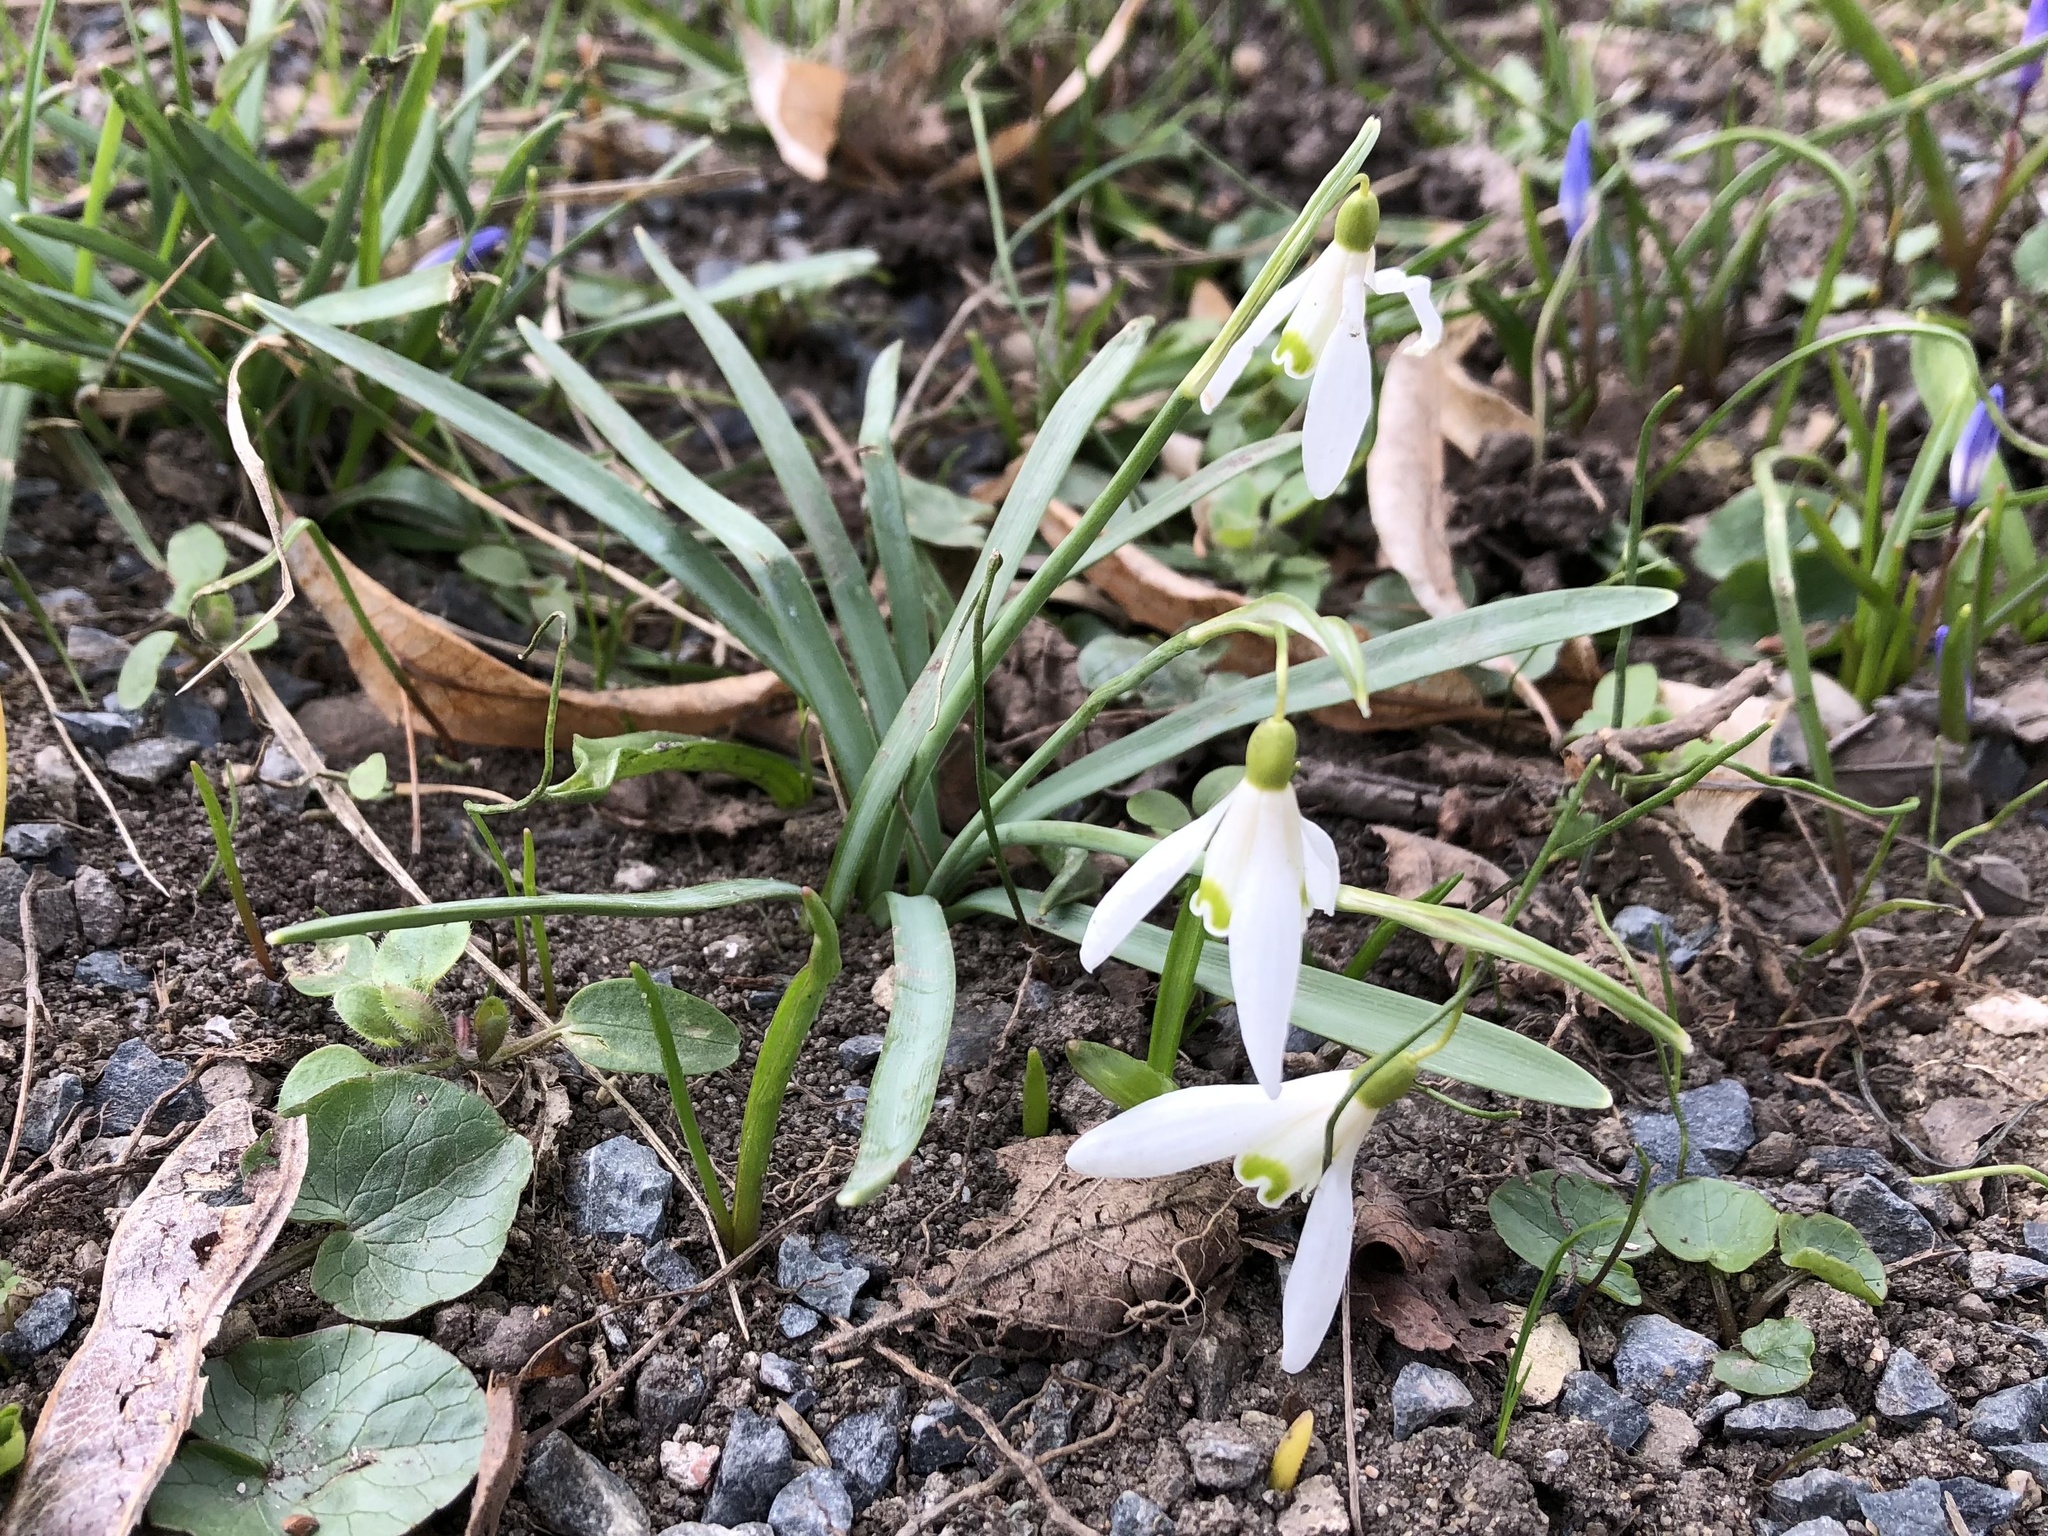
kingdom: Plantae
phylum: Tracheophyta
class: Liliopsida
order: Asparagales
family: Amaryllidaceae
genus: Galanthus
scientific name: Galanthus nivalis
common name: Snowdrop
